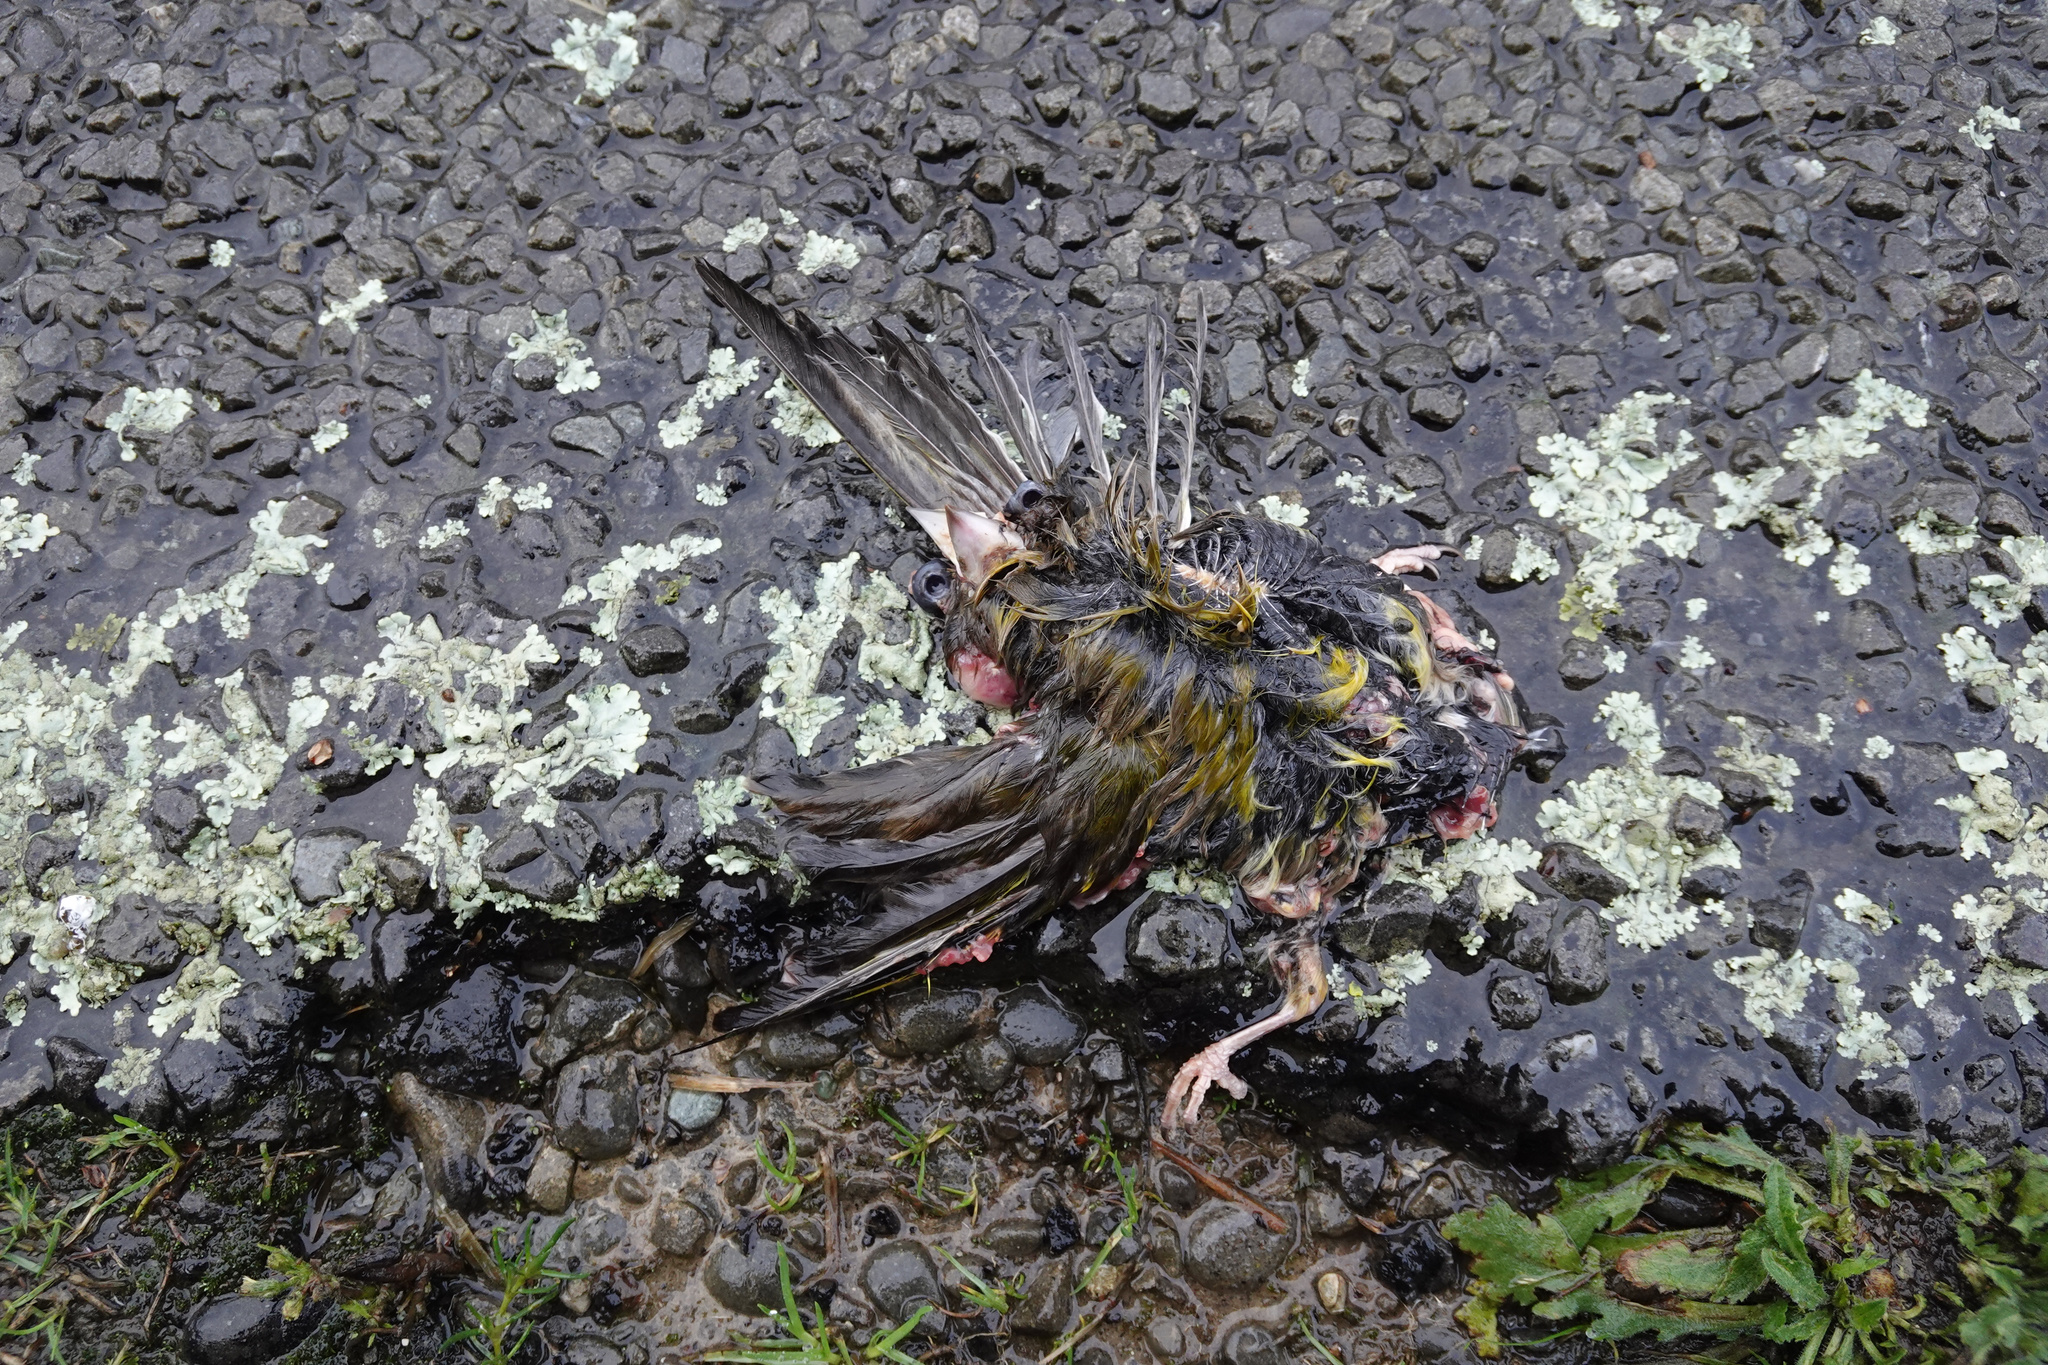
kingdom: Plantae
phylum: Tracheophyta
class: Liliopsida
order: Poales
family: Poaceae
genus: Chloris
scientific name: Chloris chloris
